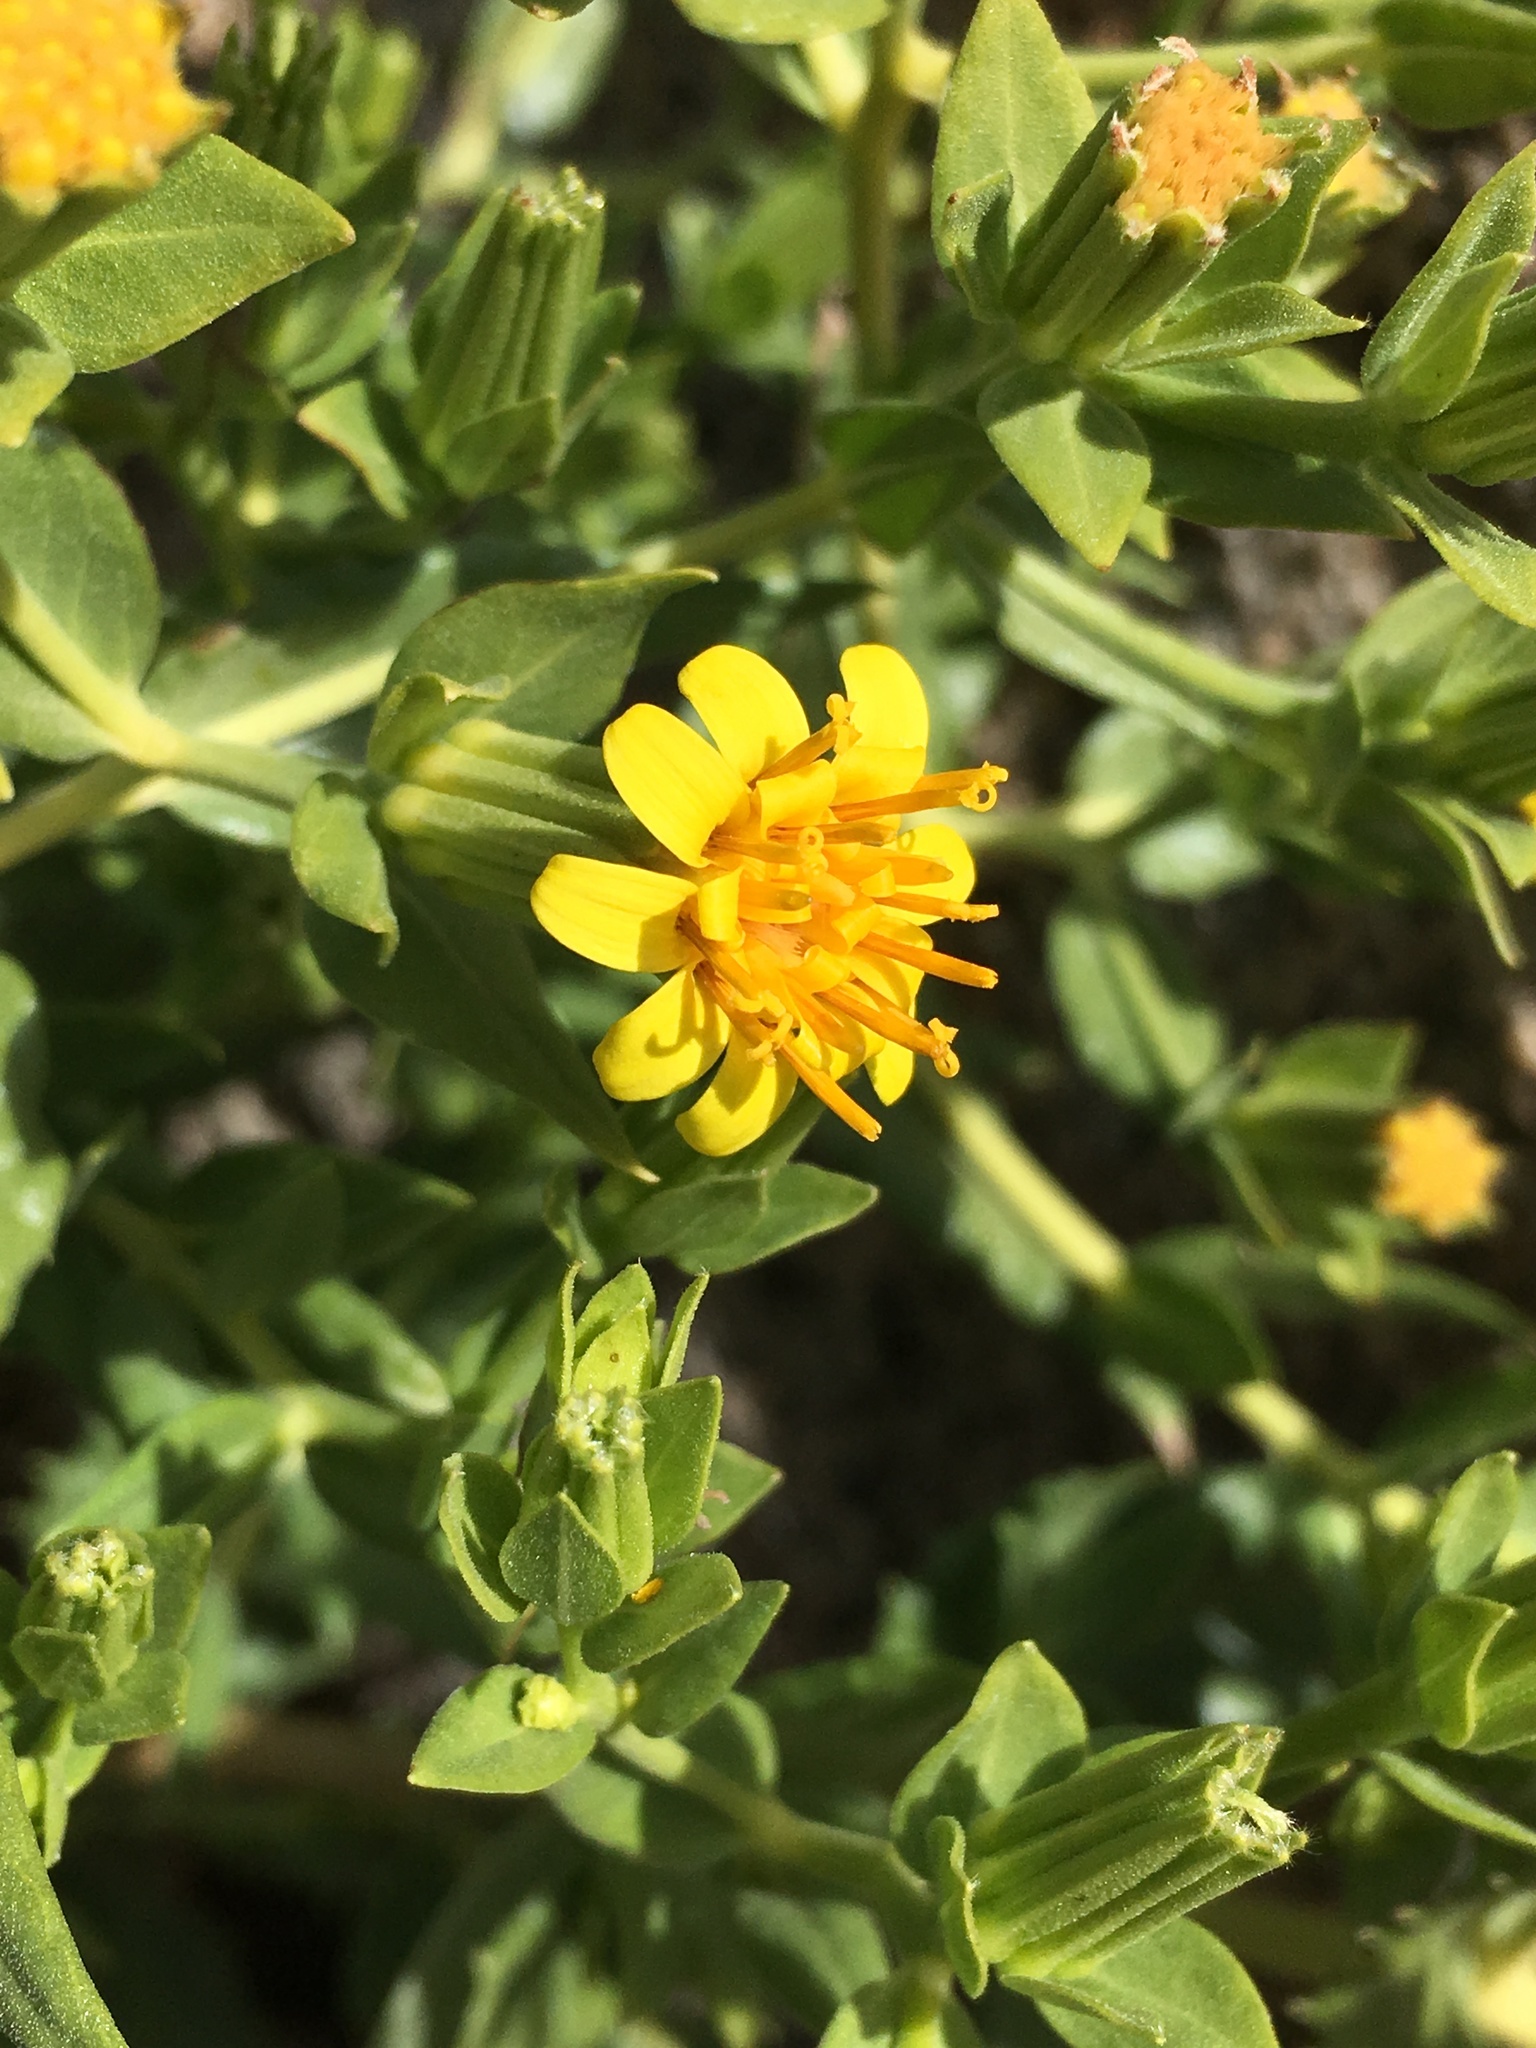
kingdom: Plantae
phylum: Tracheophyta
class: Magnoliopsida
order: Asterales
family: Asteraceae
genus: Trixis
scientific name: Trixis californica
